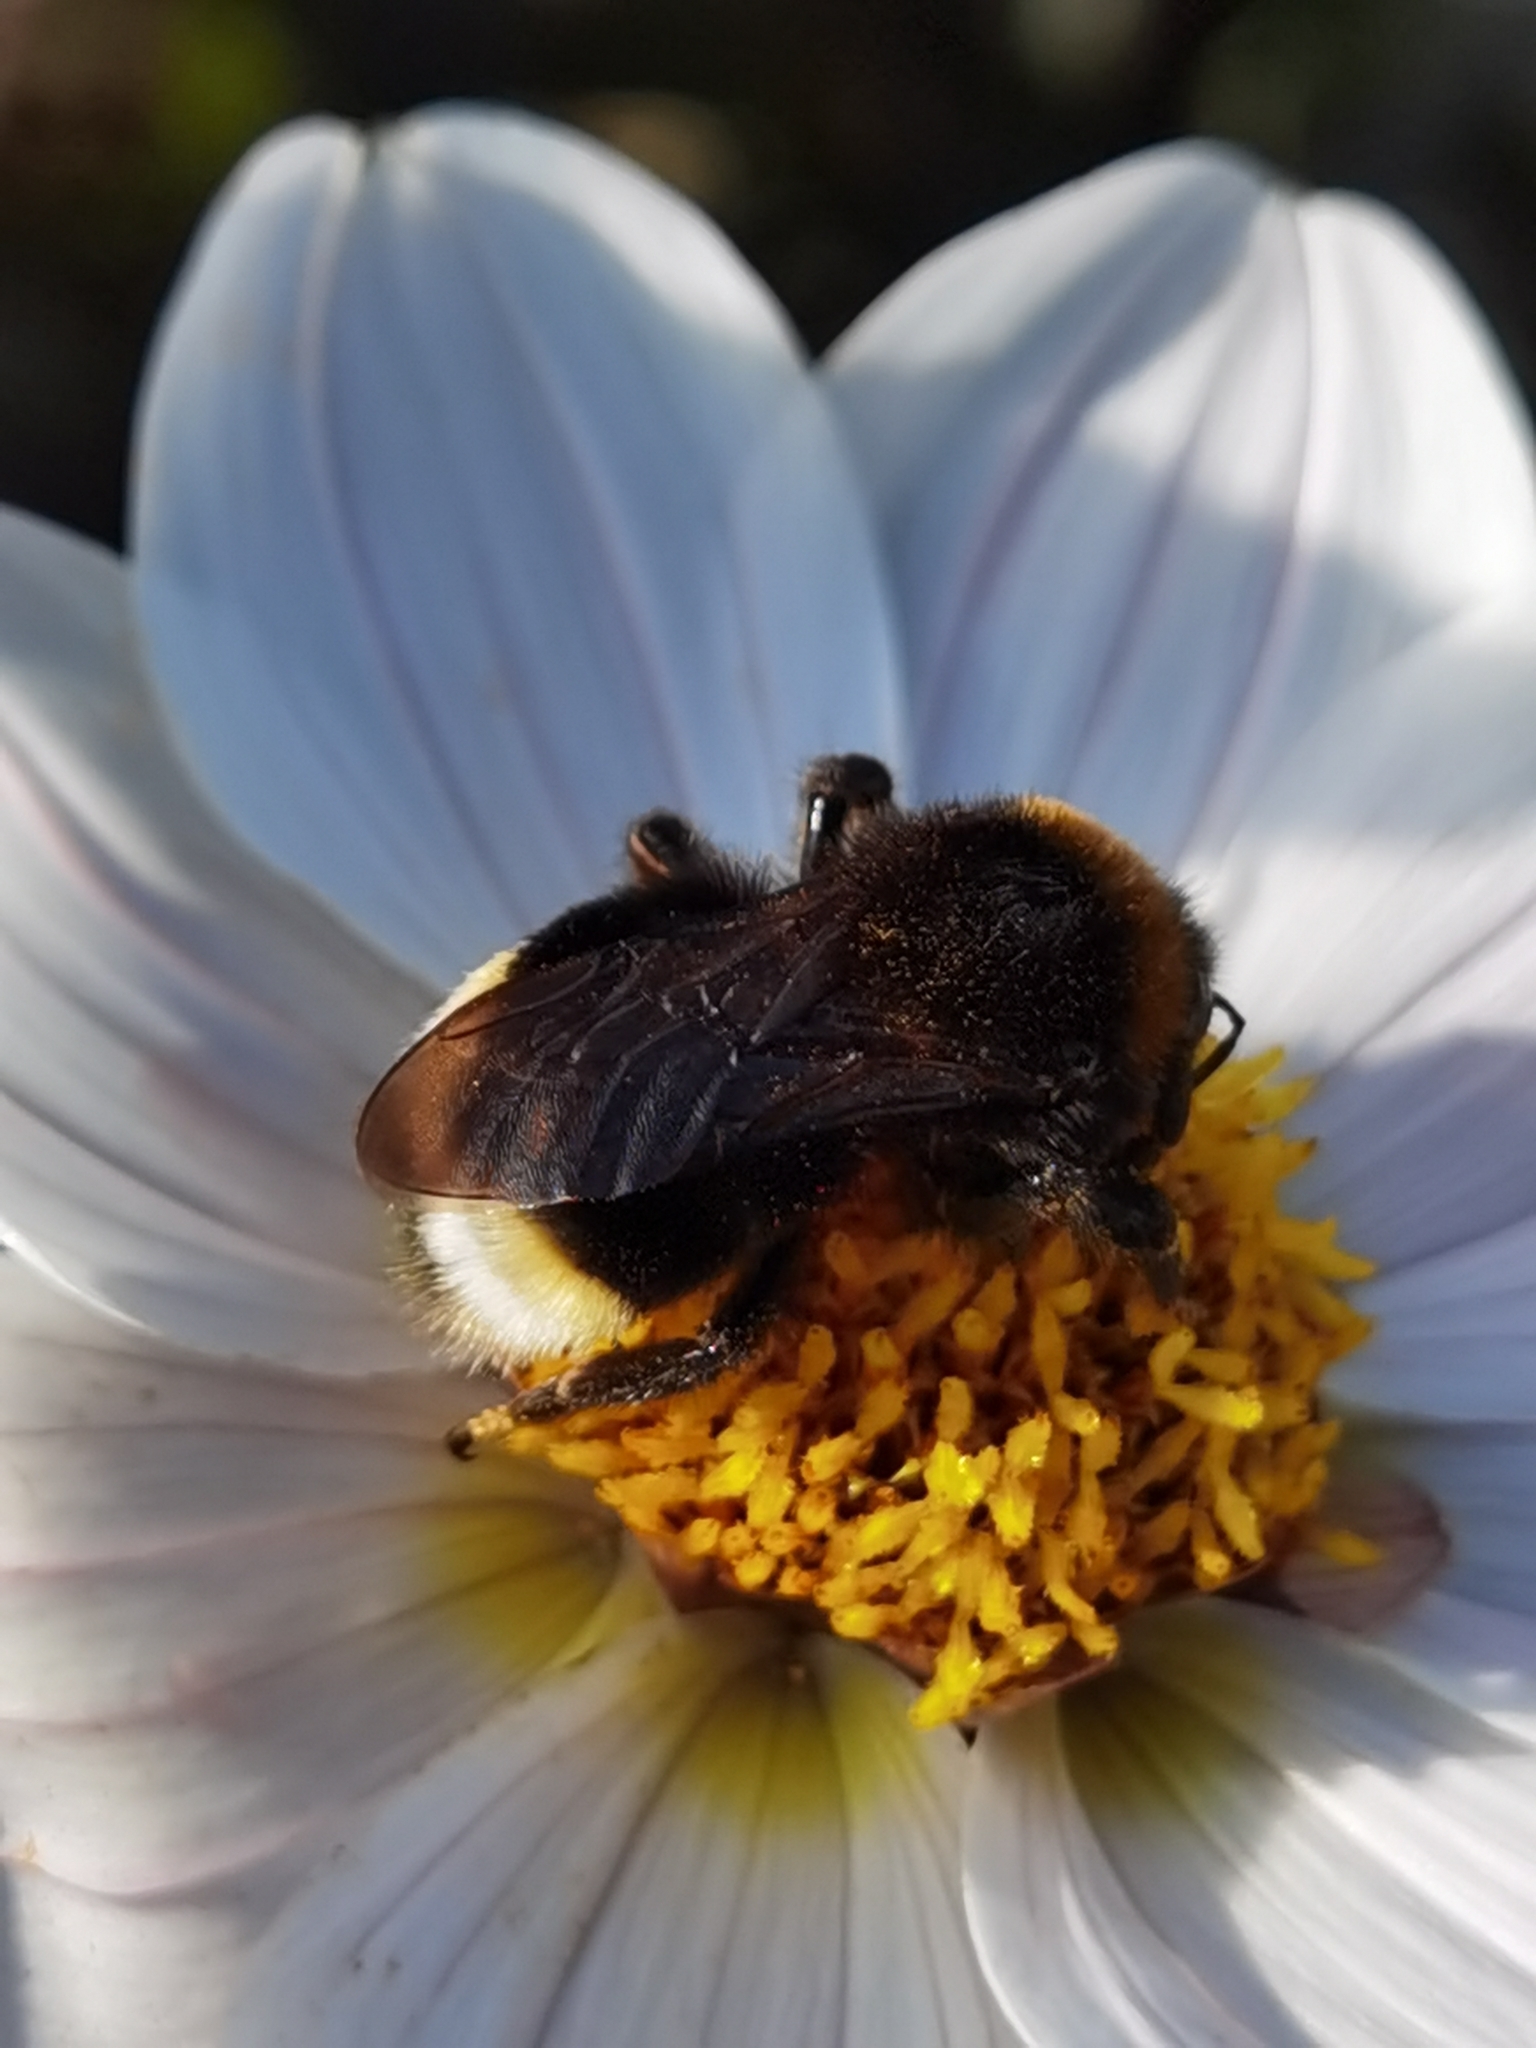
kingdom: Animalia
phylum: Arthropoda
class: Insecta
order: Hymenoptera
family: Apidae
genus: Bombus
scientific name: Bombus vestalis
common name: Vestal cuckoo bee
